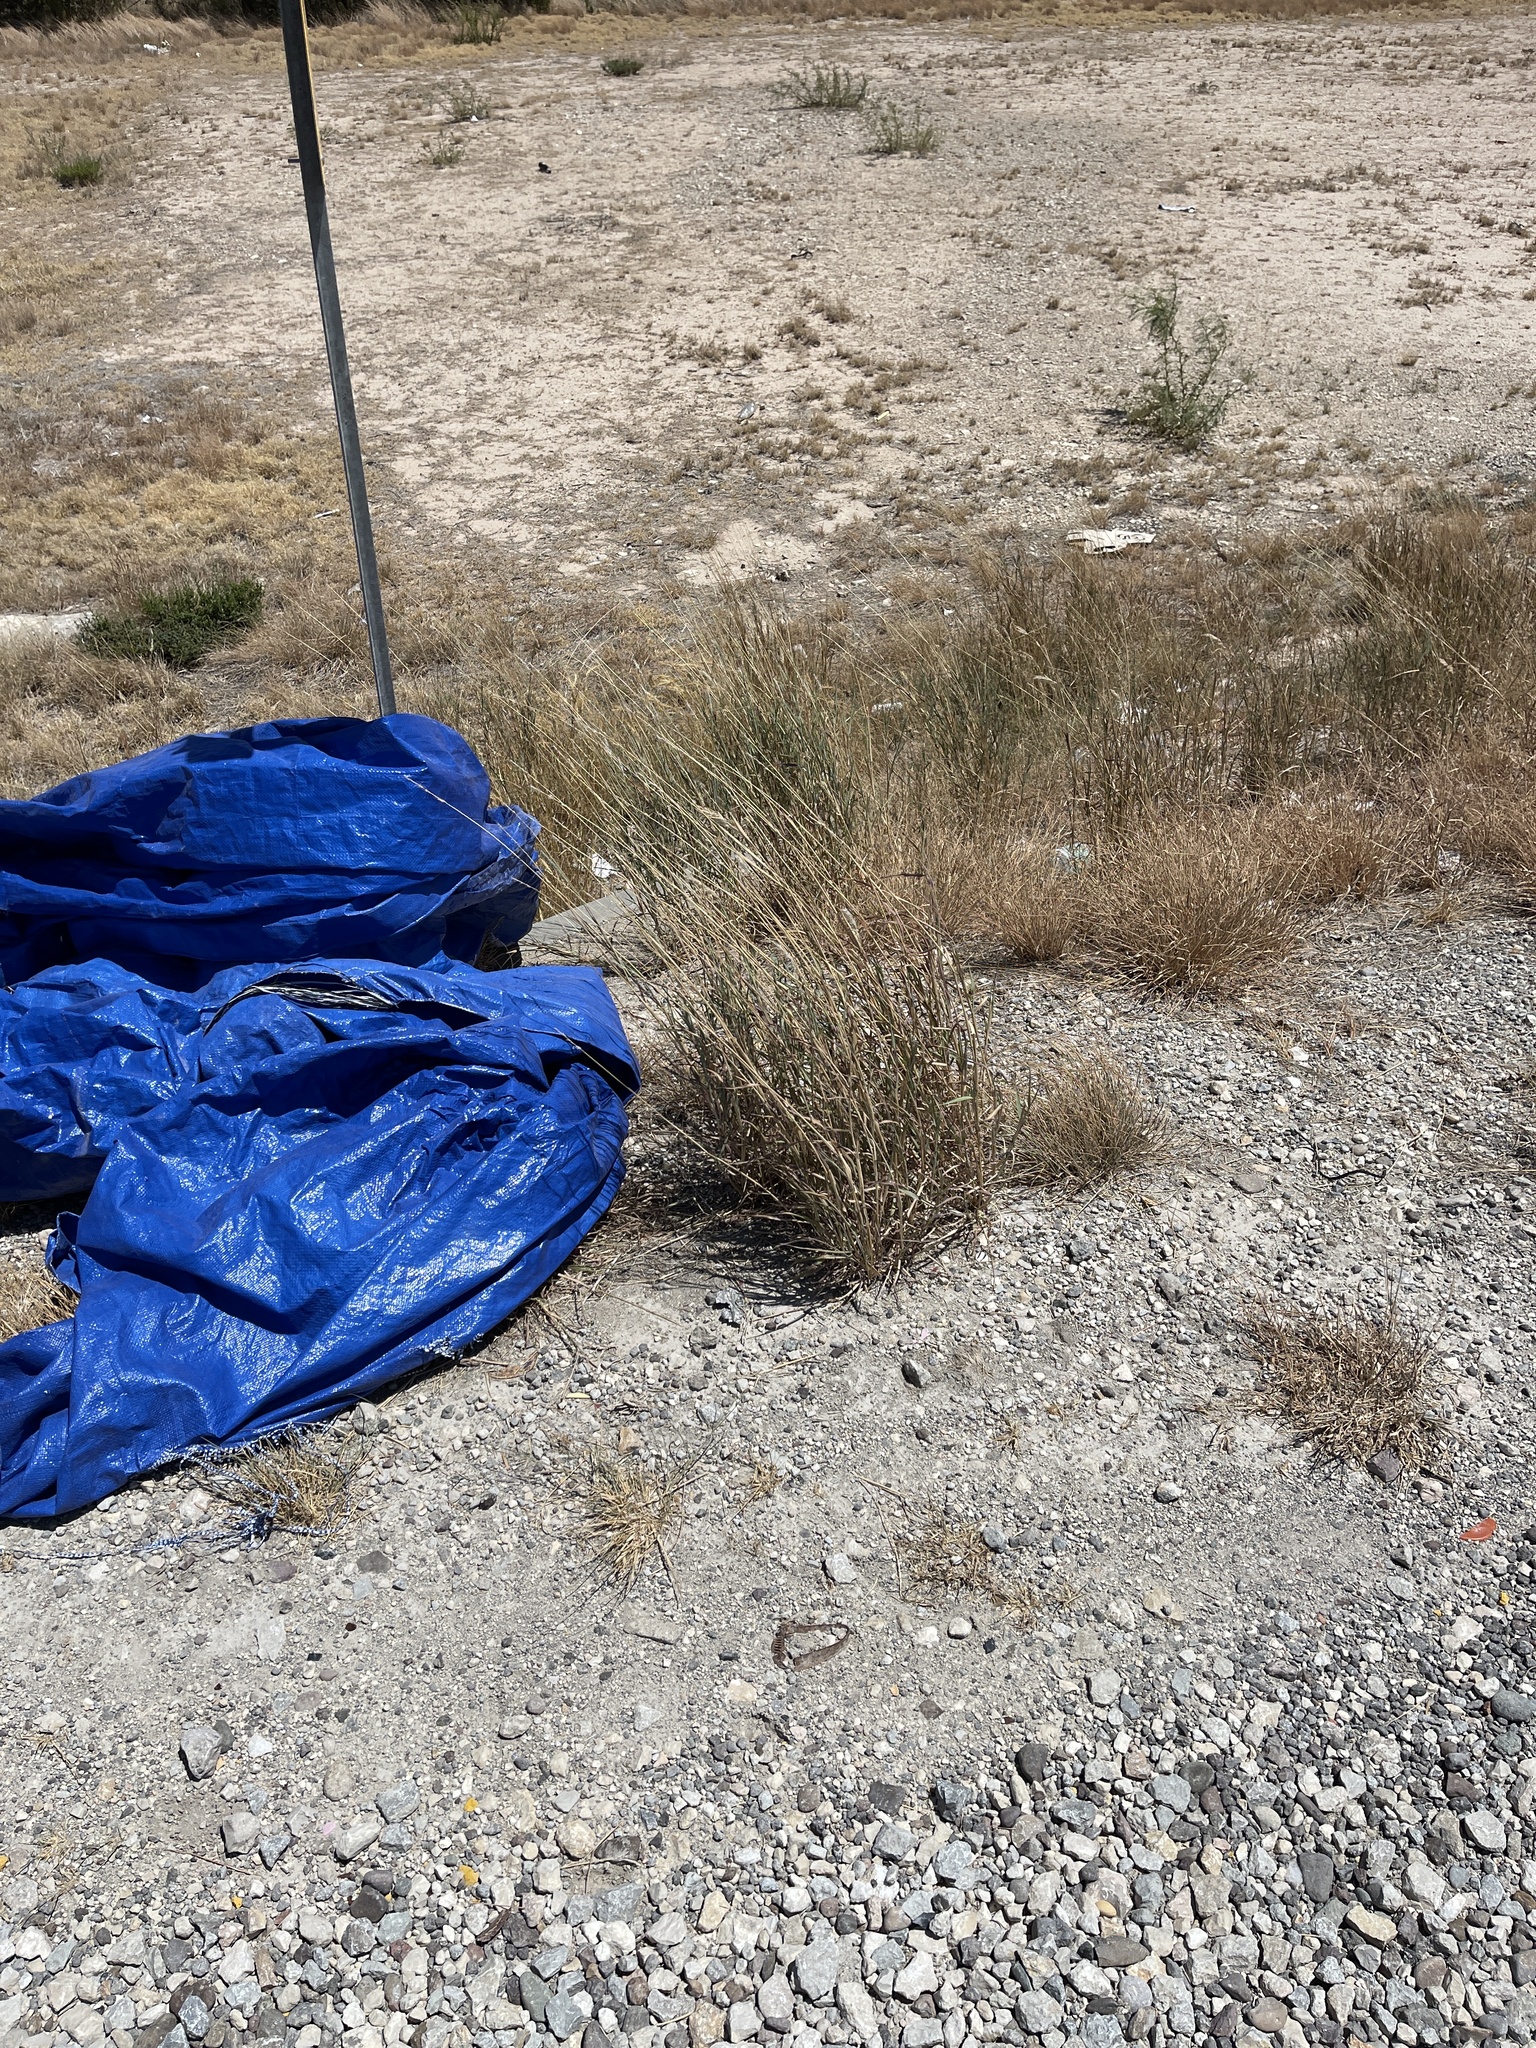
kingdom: Plantae
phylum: Tracheophyta
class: Liliopsida
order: Poales
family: Poaceae
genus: Bothriochloa
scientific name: Bothriochloa barbinodis
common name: Cane bluestem
